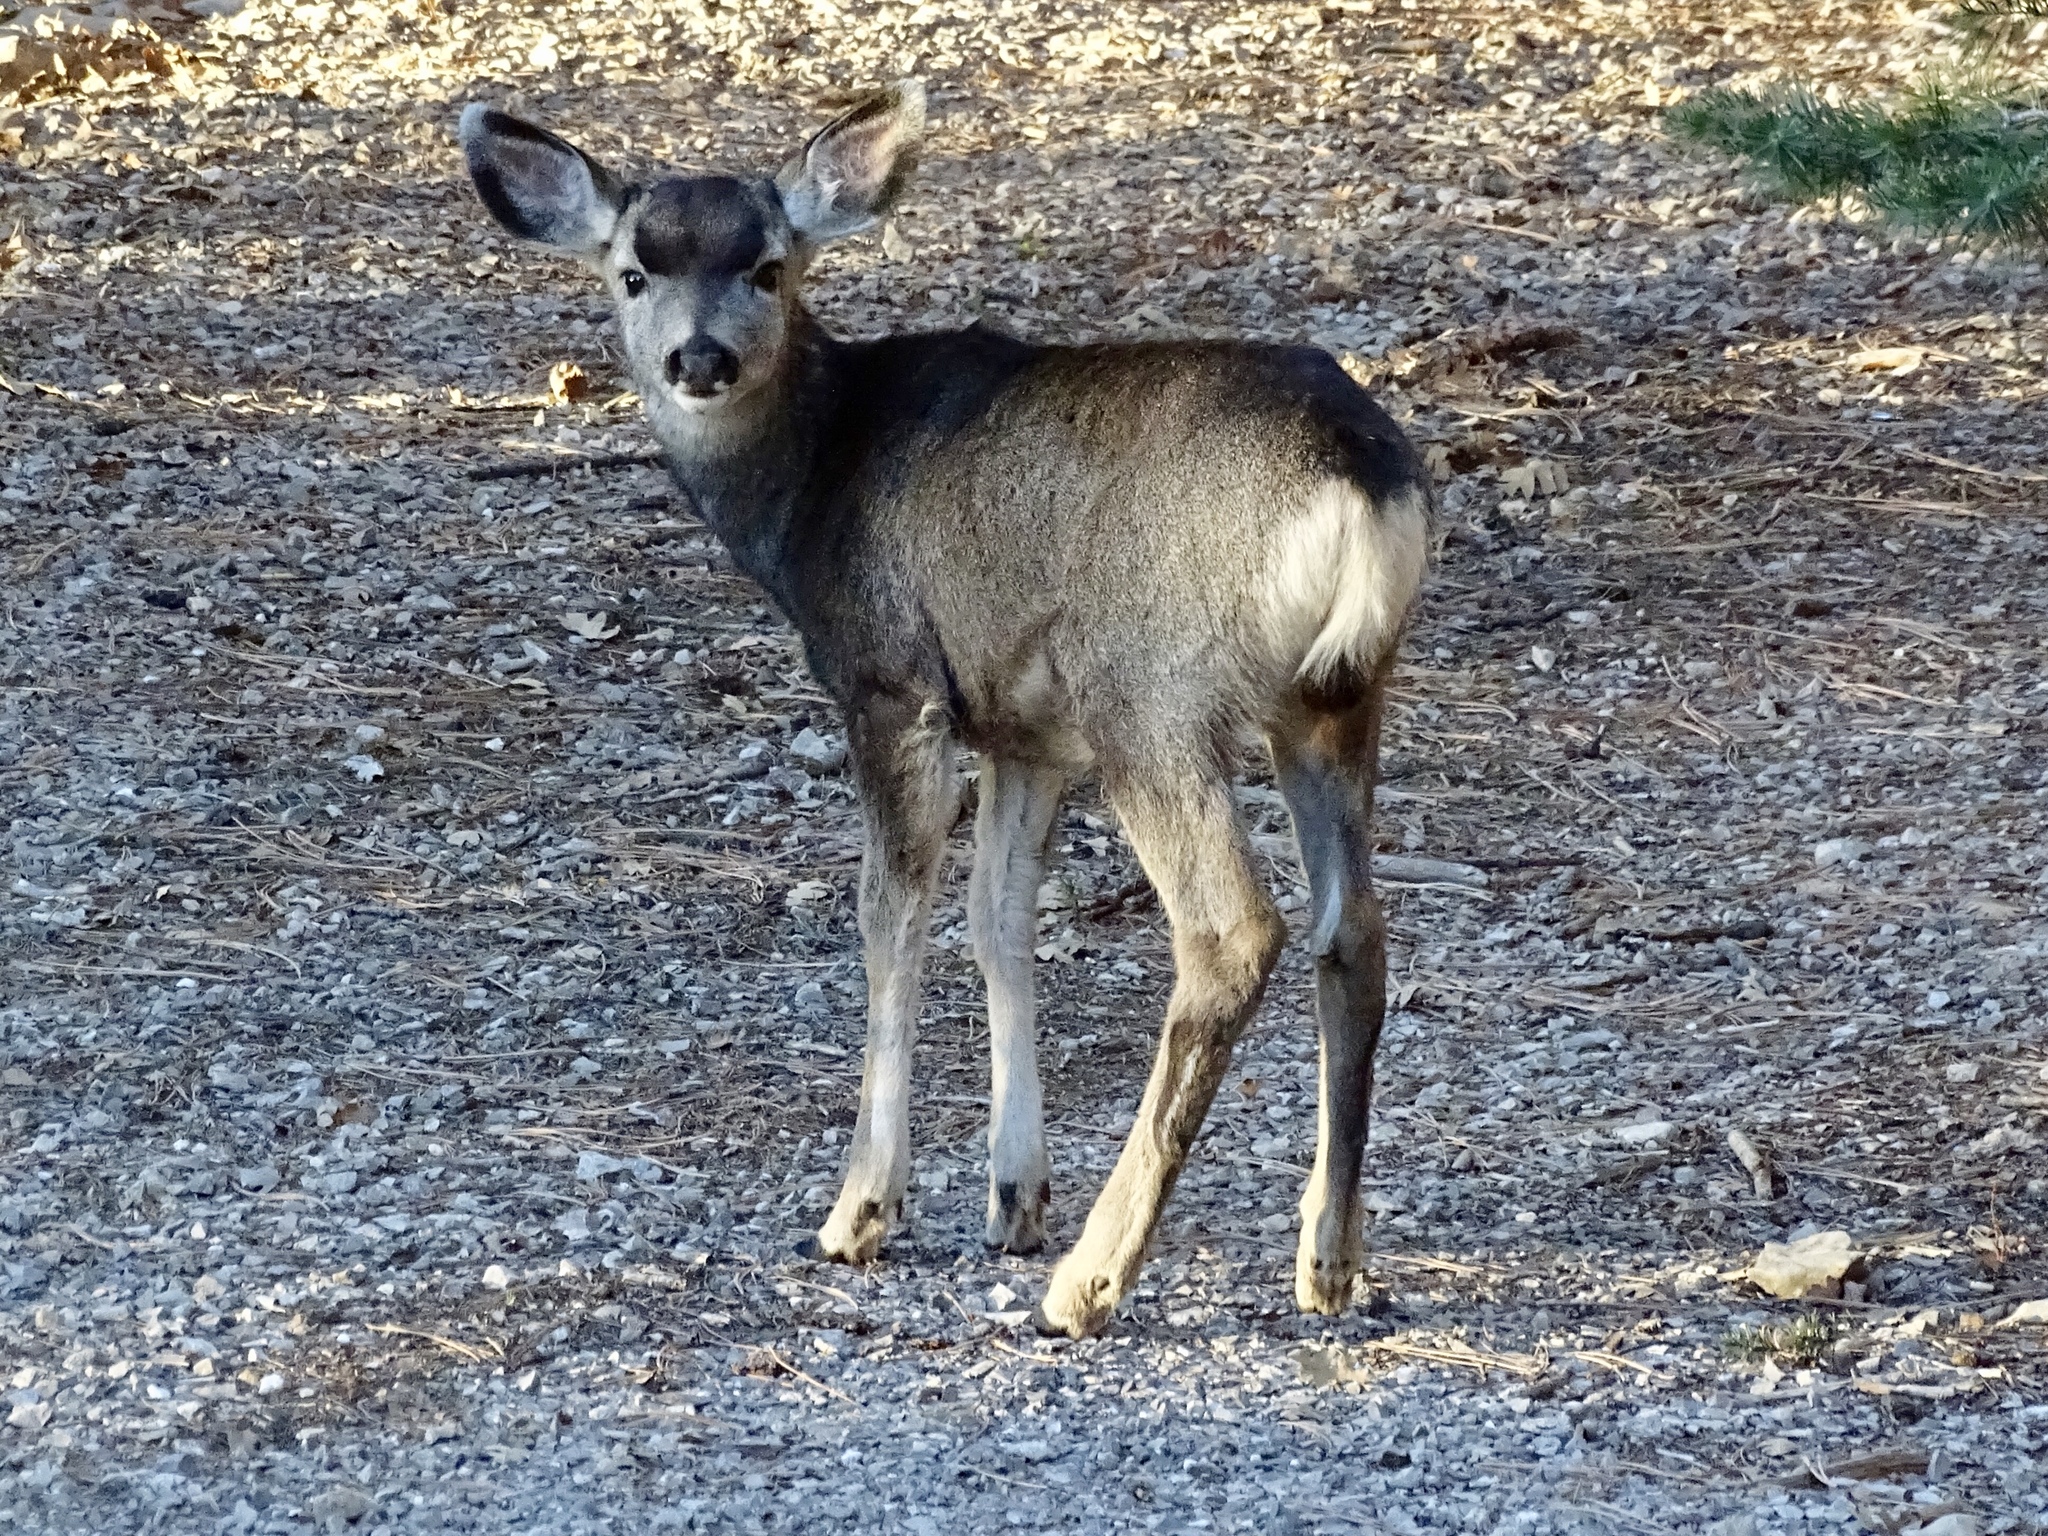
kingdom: Animalia
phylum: Chordata
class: Mammalia
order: Artiodactyla
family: Cervidae
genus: Odocoileus
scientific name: Odocoileus hemionus
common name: Mule deer
